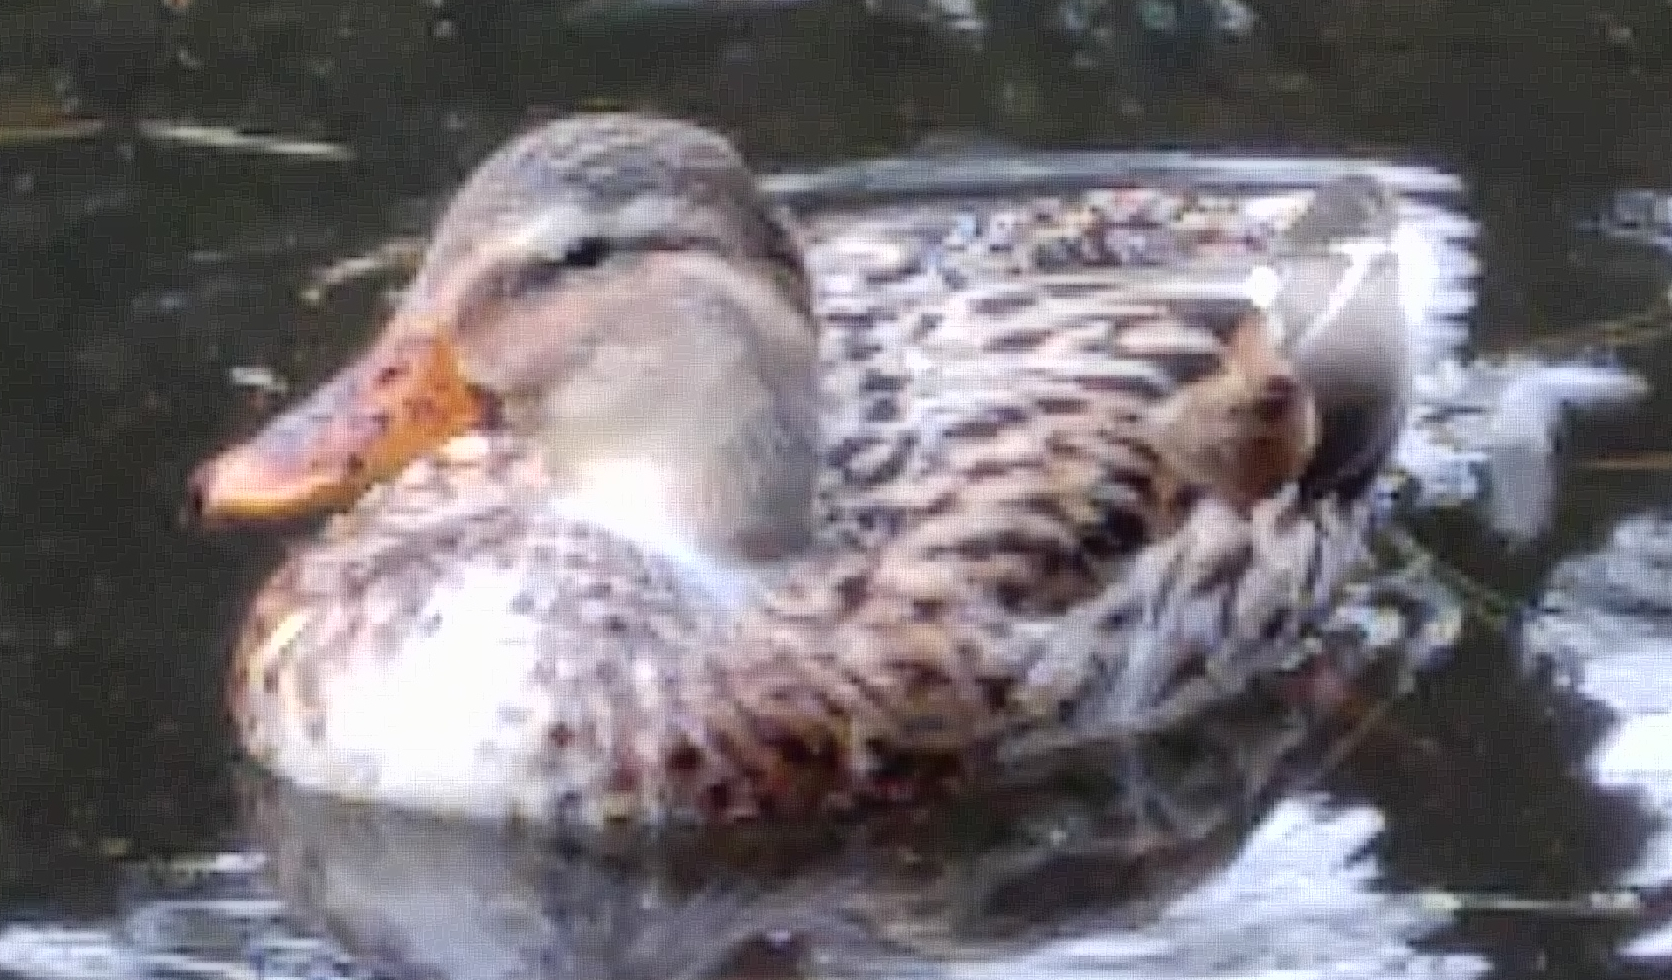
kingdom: Animalia
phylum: Chordata
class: Aves
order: Anseriformes
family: Anatidae
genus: Anas
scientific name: Anas platyrhynchos
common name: Mallard
